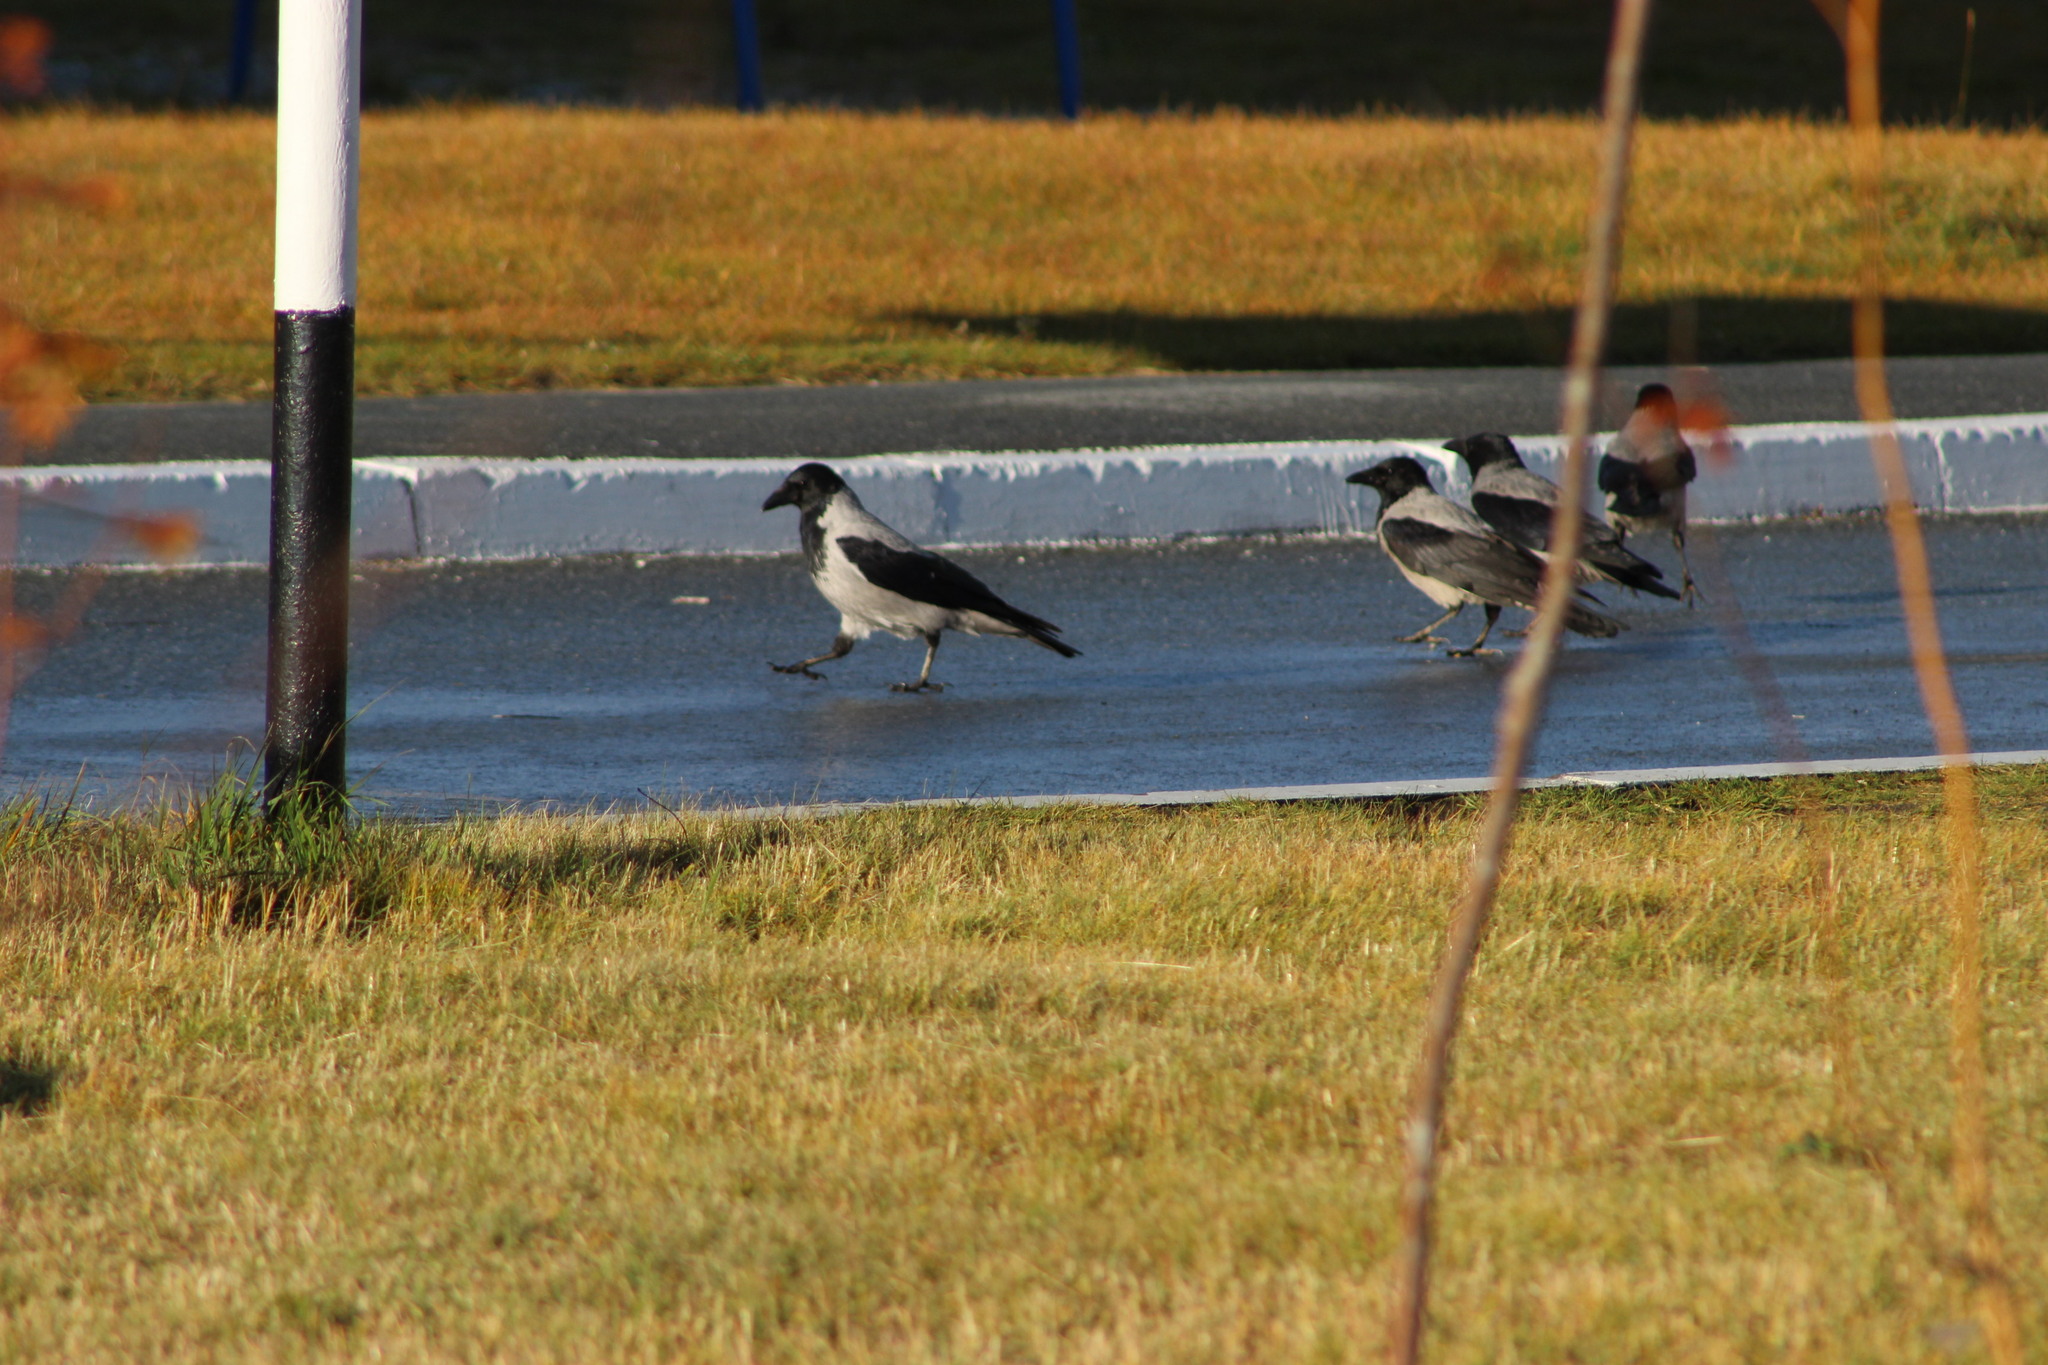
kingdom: Animalia
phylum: Chordata
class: Aves
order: Passeriformes
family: Corvidae
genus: Corvus
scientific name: Corvus cornix
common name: Hooded crow
